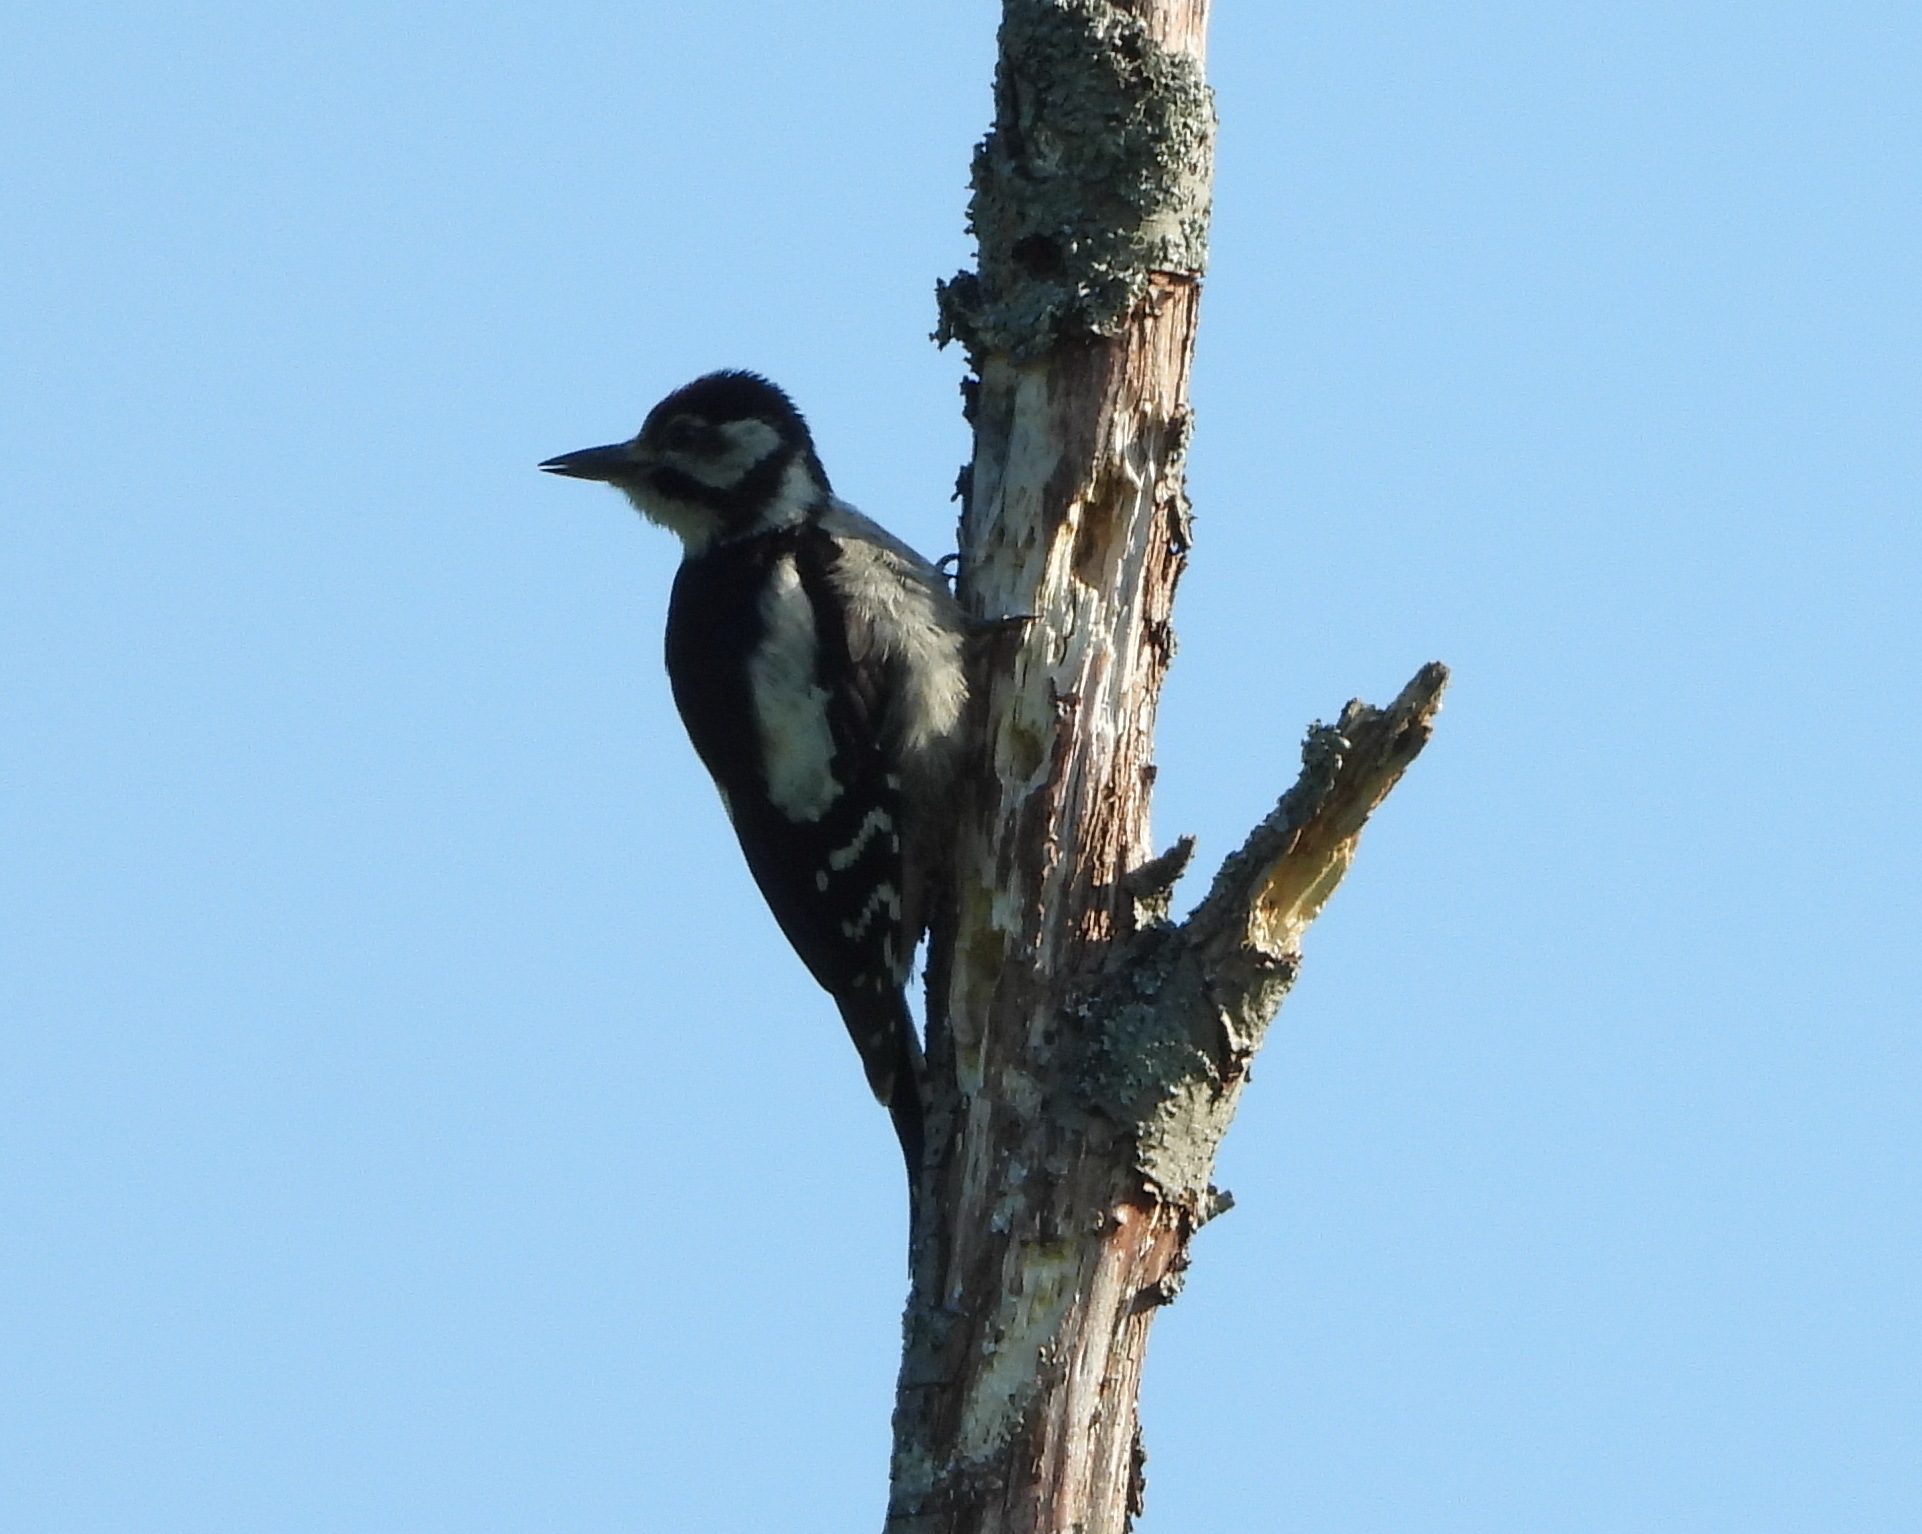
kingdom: Animalia
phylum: Chordata
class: Aves
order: Piciformes
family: Picidae
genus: Dendrocopos
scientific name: Dendrocopos major
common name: Great spotted woodpecker
